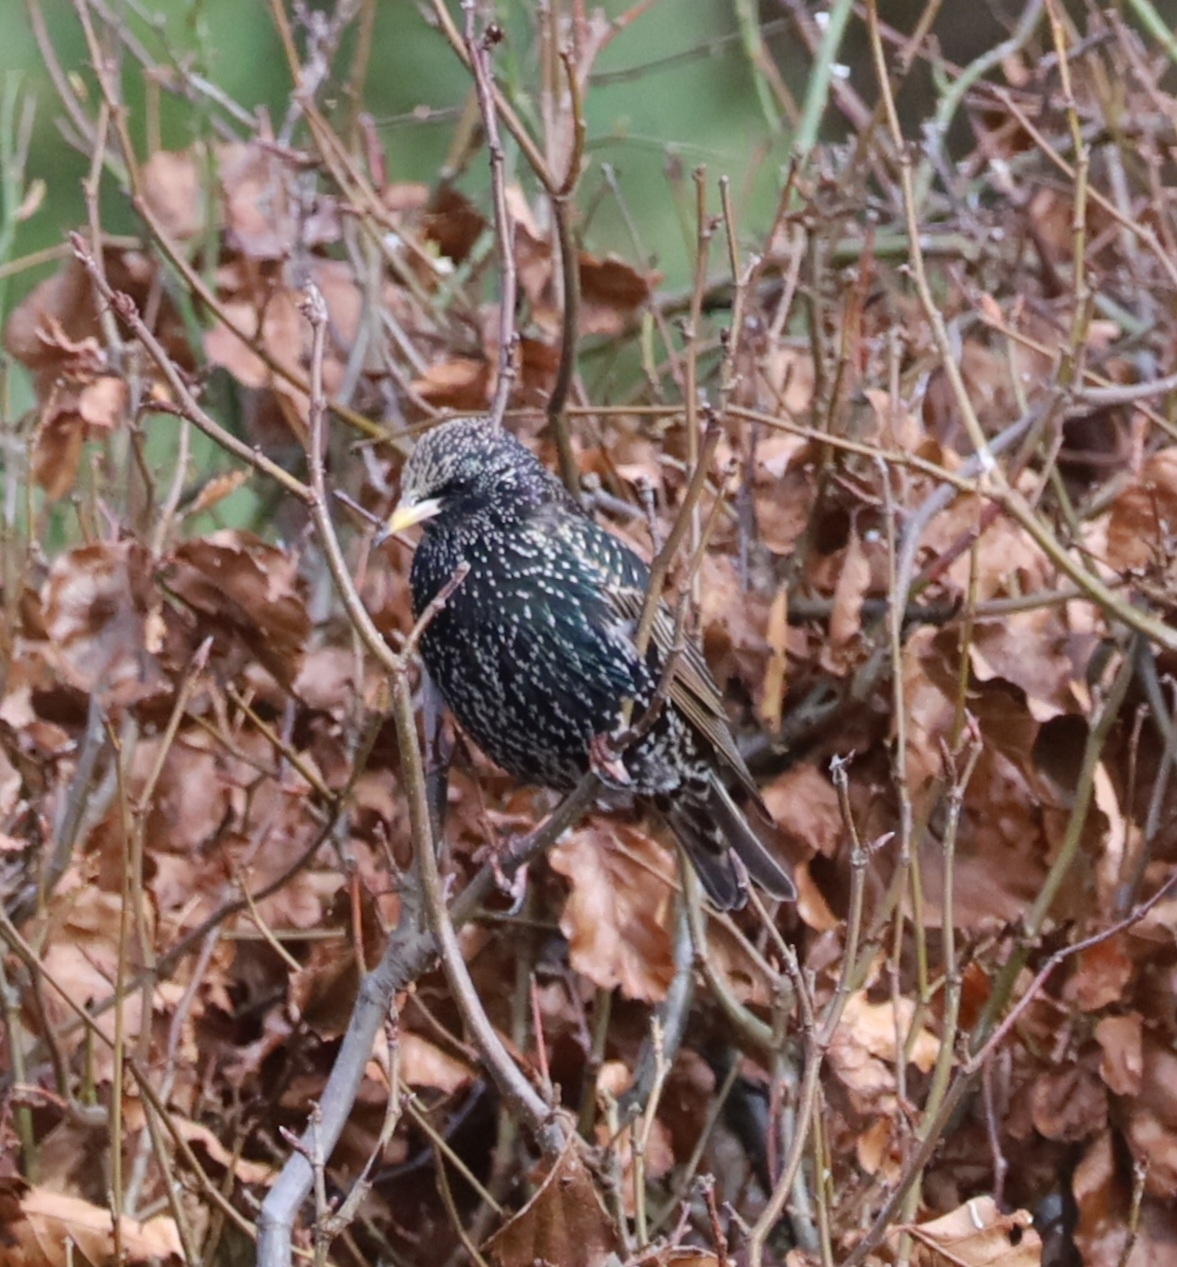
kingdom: Animalia
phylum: Chordata
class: Aves
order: Passeriformes
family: Sturnidae
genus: Sturnus
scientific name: Sturnus vulgaris
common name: Common starling
